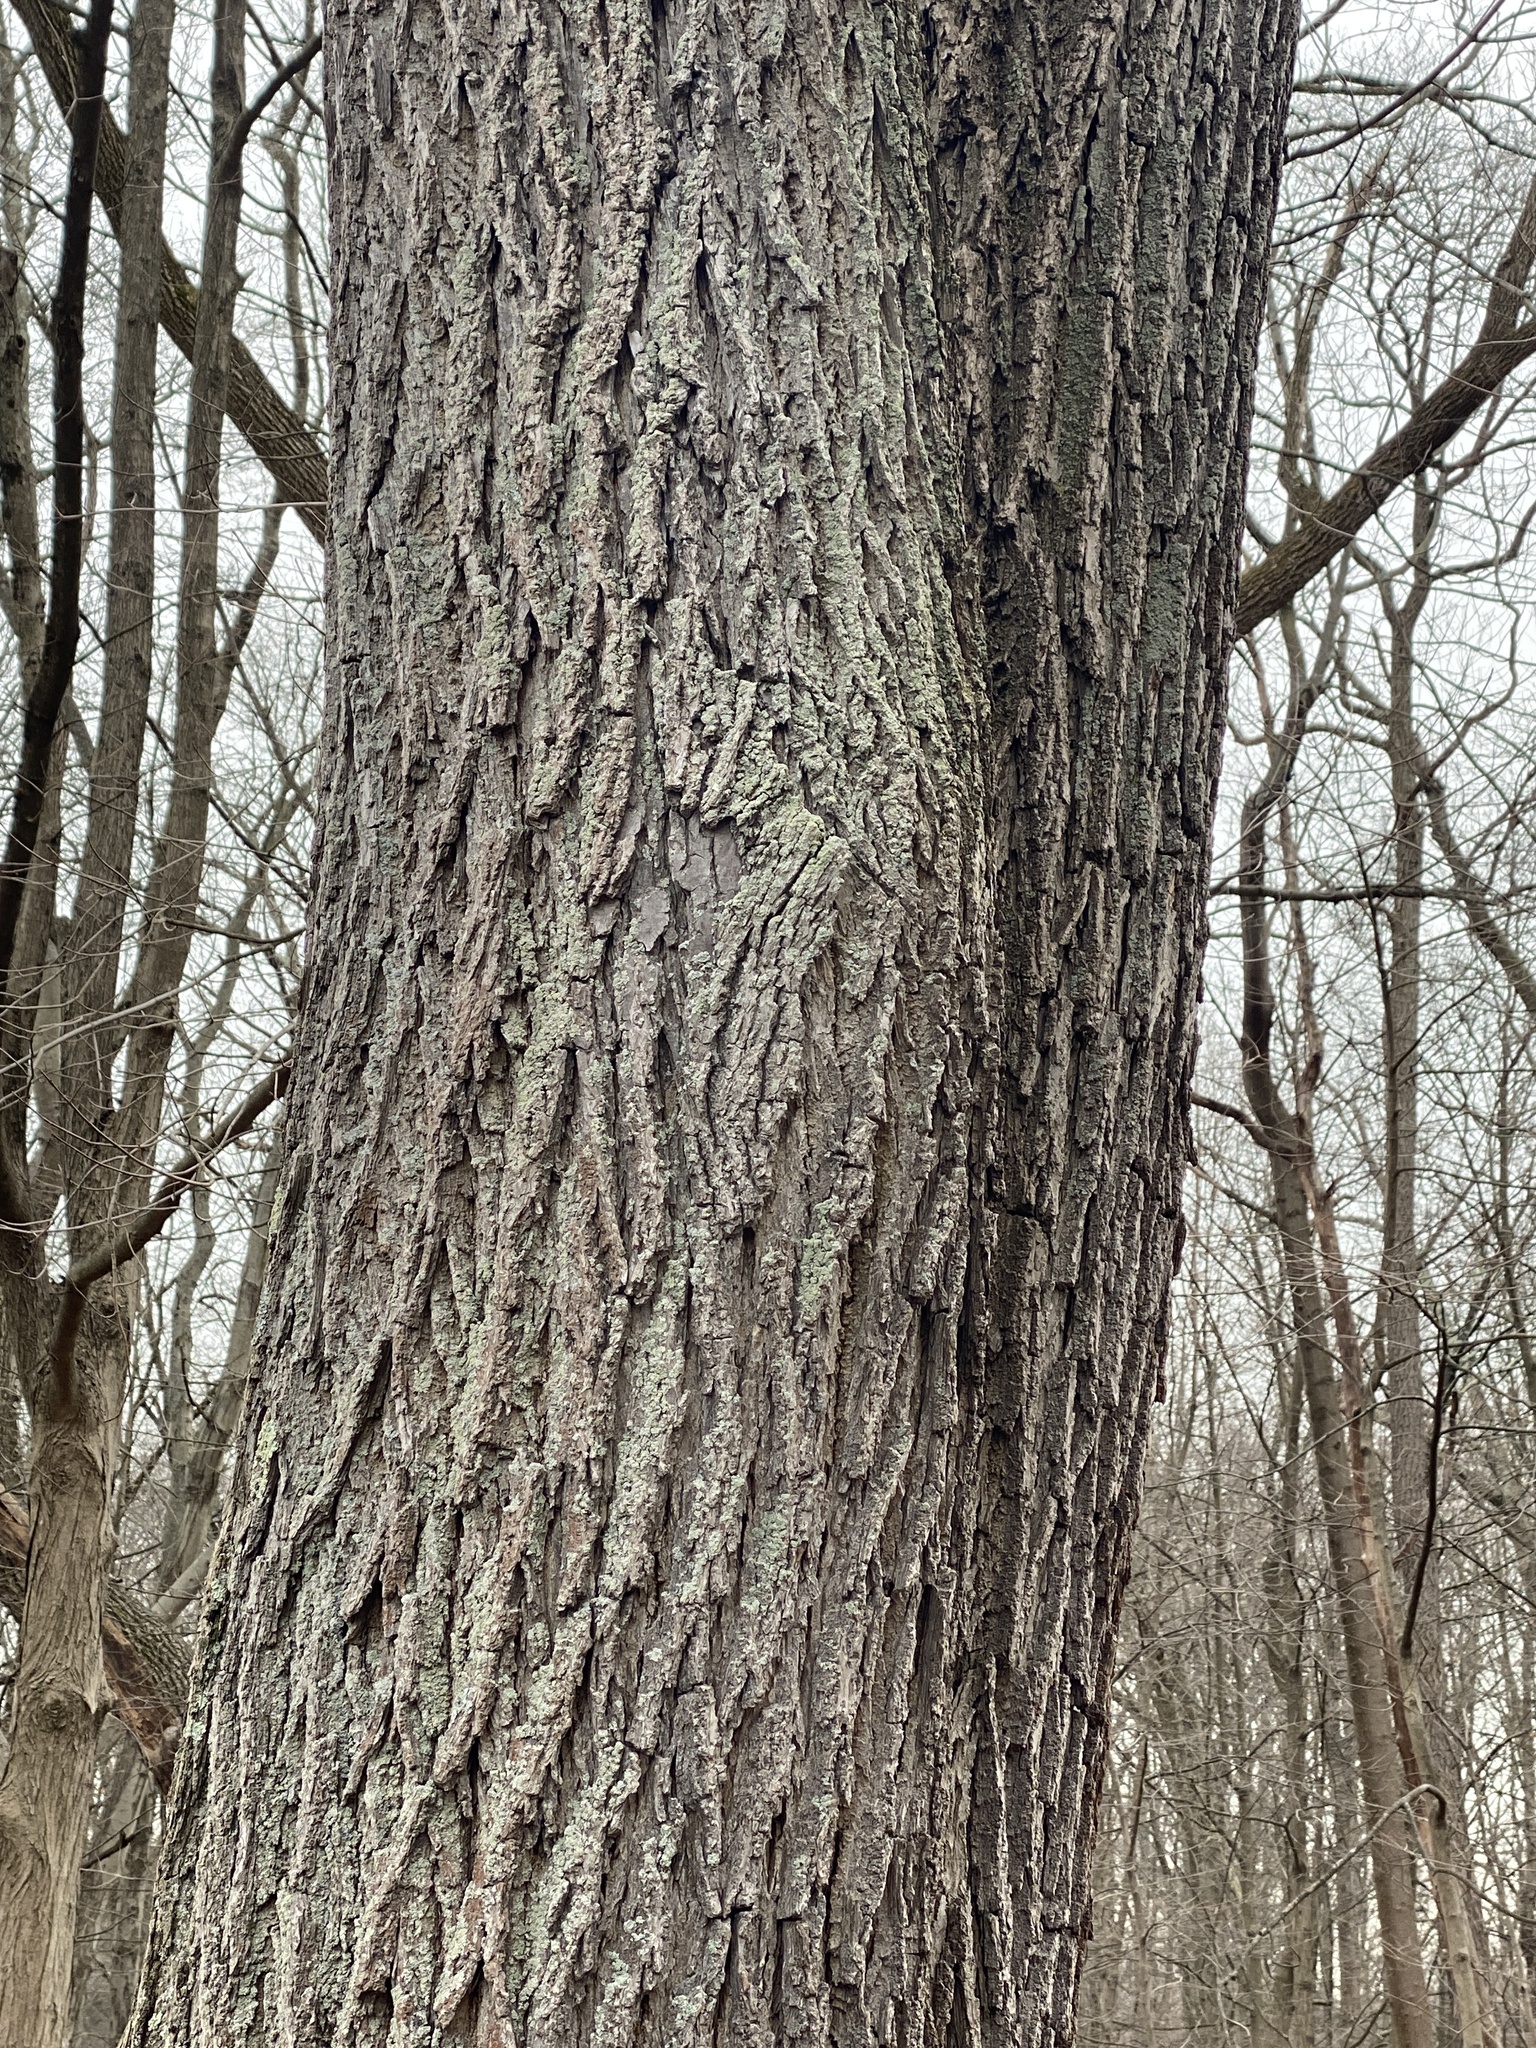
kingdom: Plantae
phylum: Tracheophyta
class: Magnoliopsida
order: Fagales
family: Juglandaceae
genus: Juglans
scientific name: Juglans nigra
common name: Black walnut
